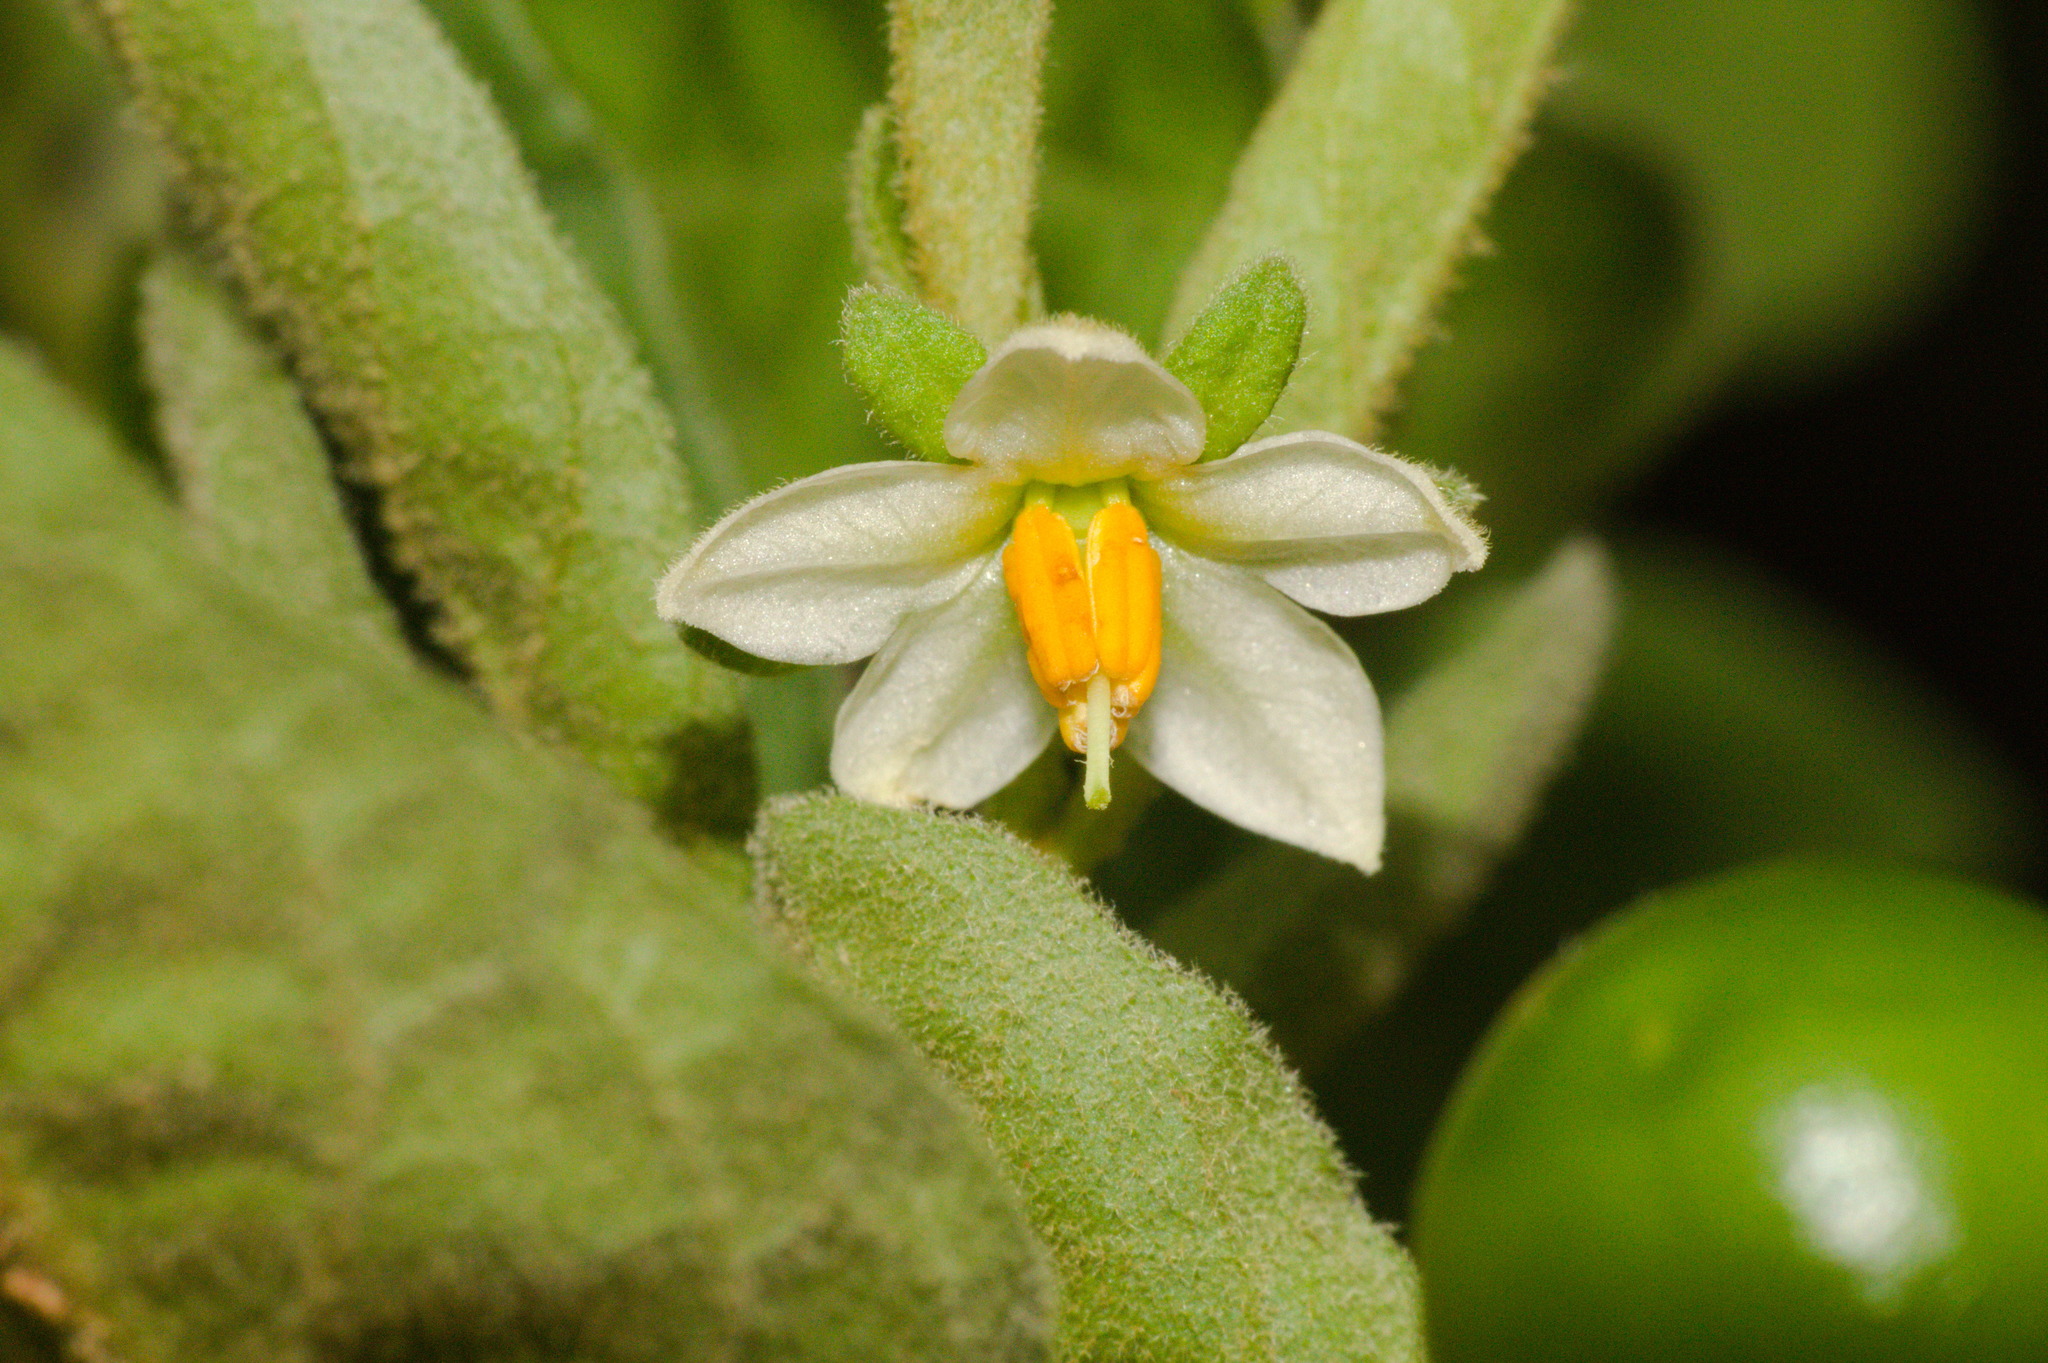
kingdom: Plantae
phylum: Tracheophyta
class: Magnoliopsida
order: Solanales
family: Solanaceae
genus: Solanum
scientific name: Solanum pseudocapsicum
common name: Jerusalem cherry
